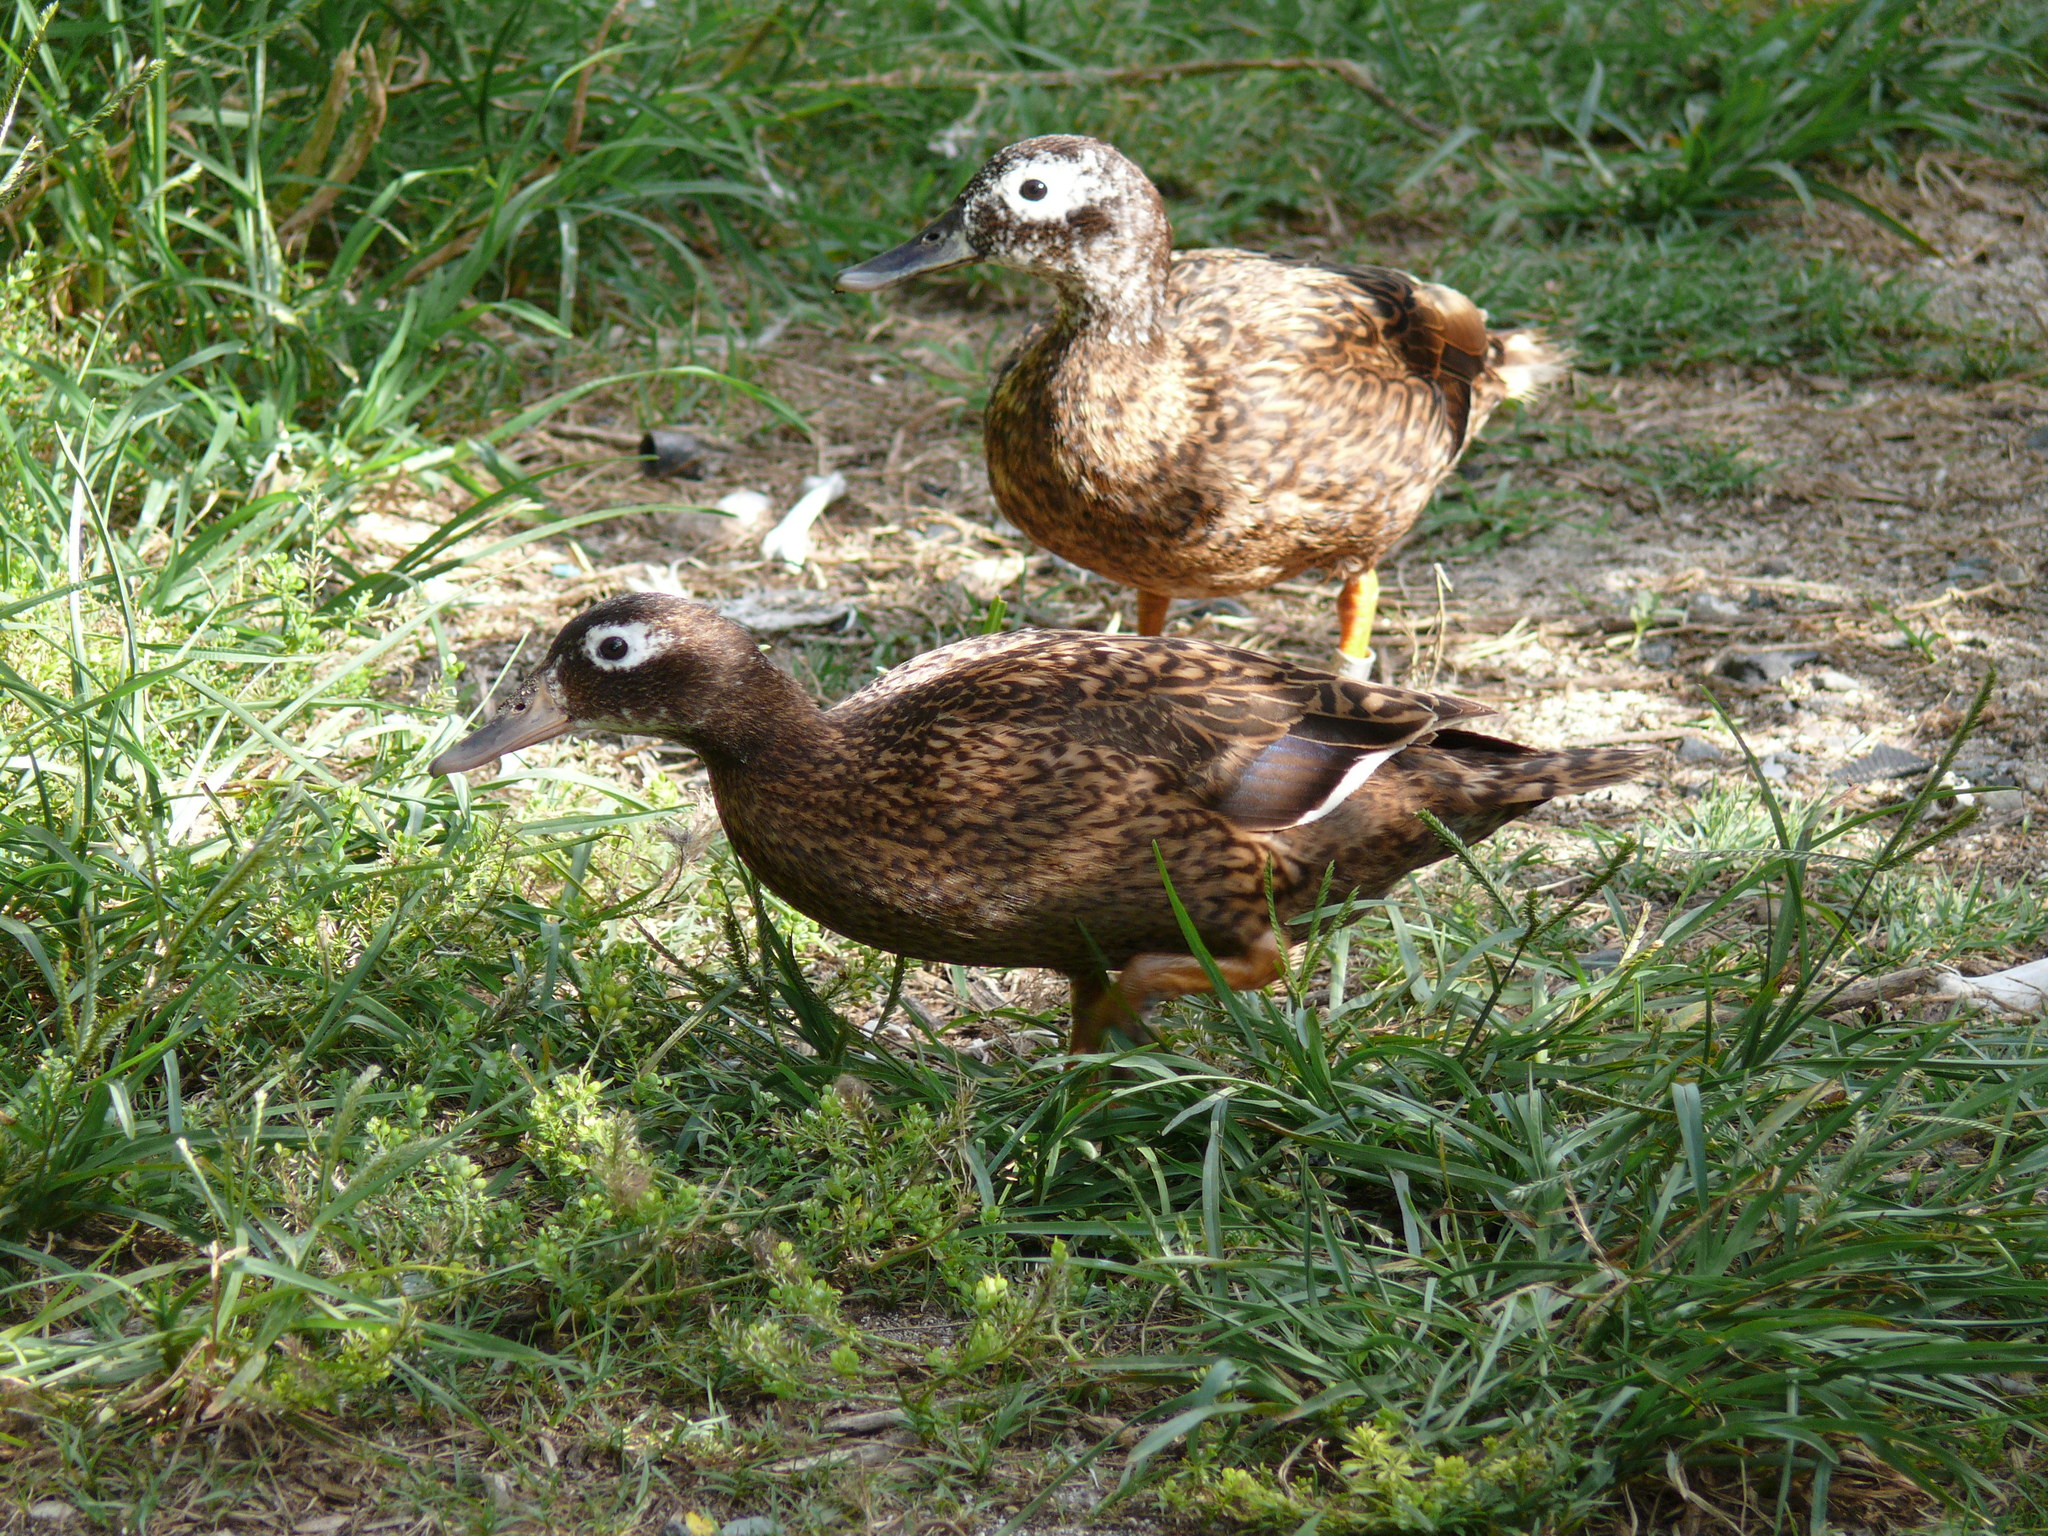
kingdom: Animalia
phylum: Chordata
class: Aves
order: Anseriformes
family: Anatidae
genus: Anas
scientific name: Anas laysanensis
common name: Laysan duck
